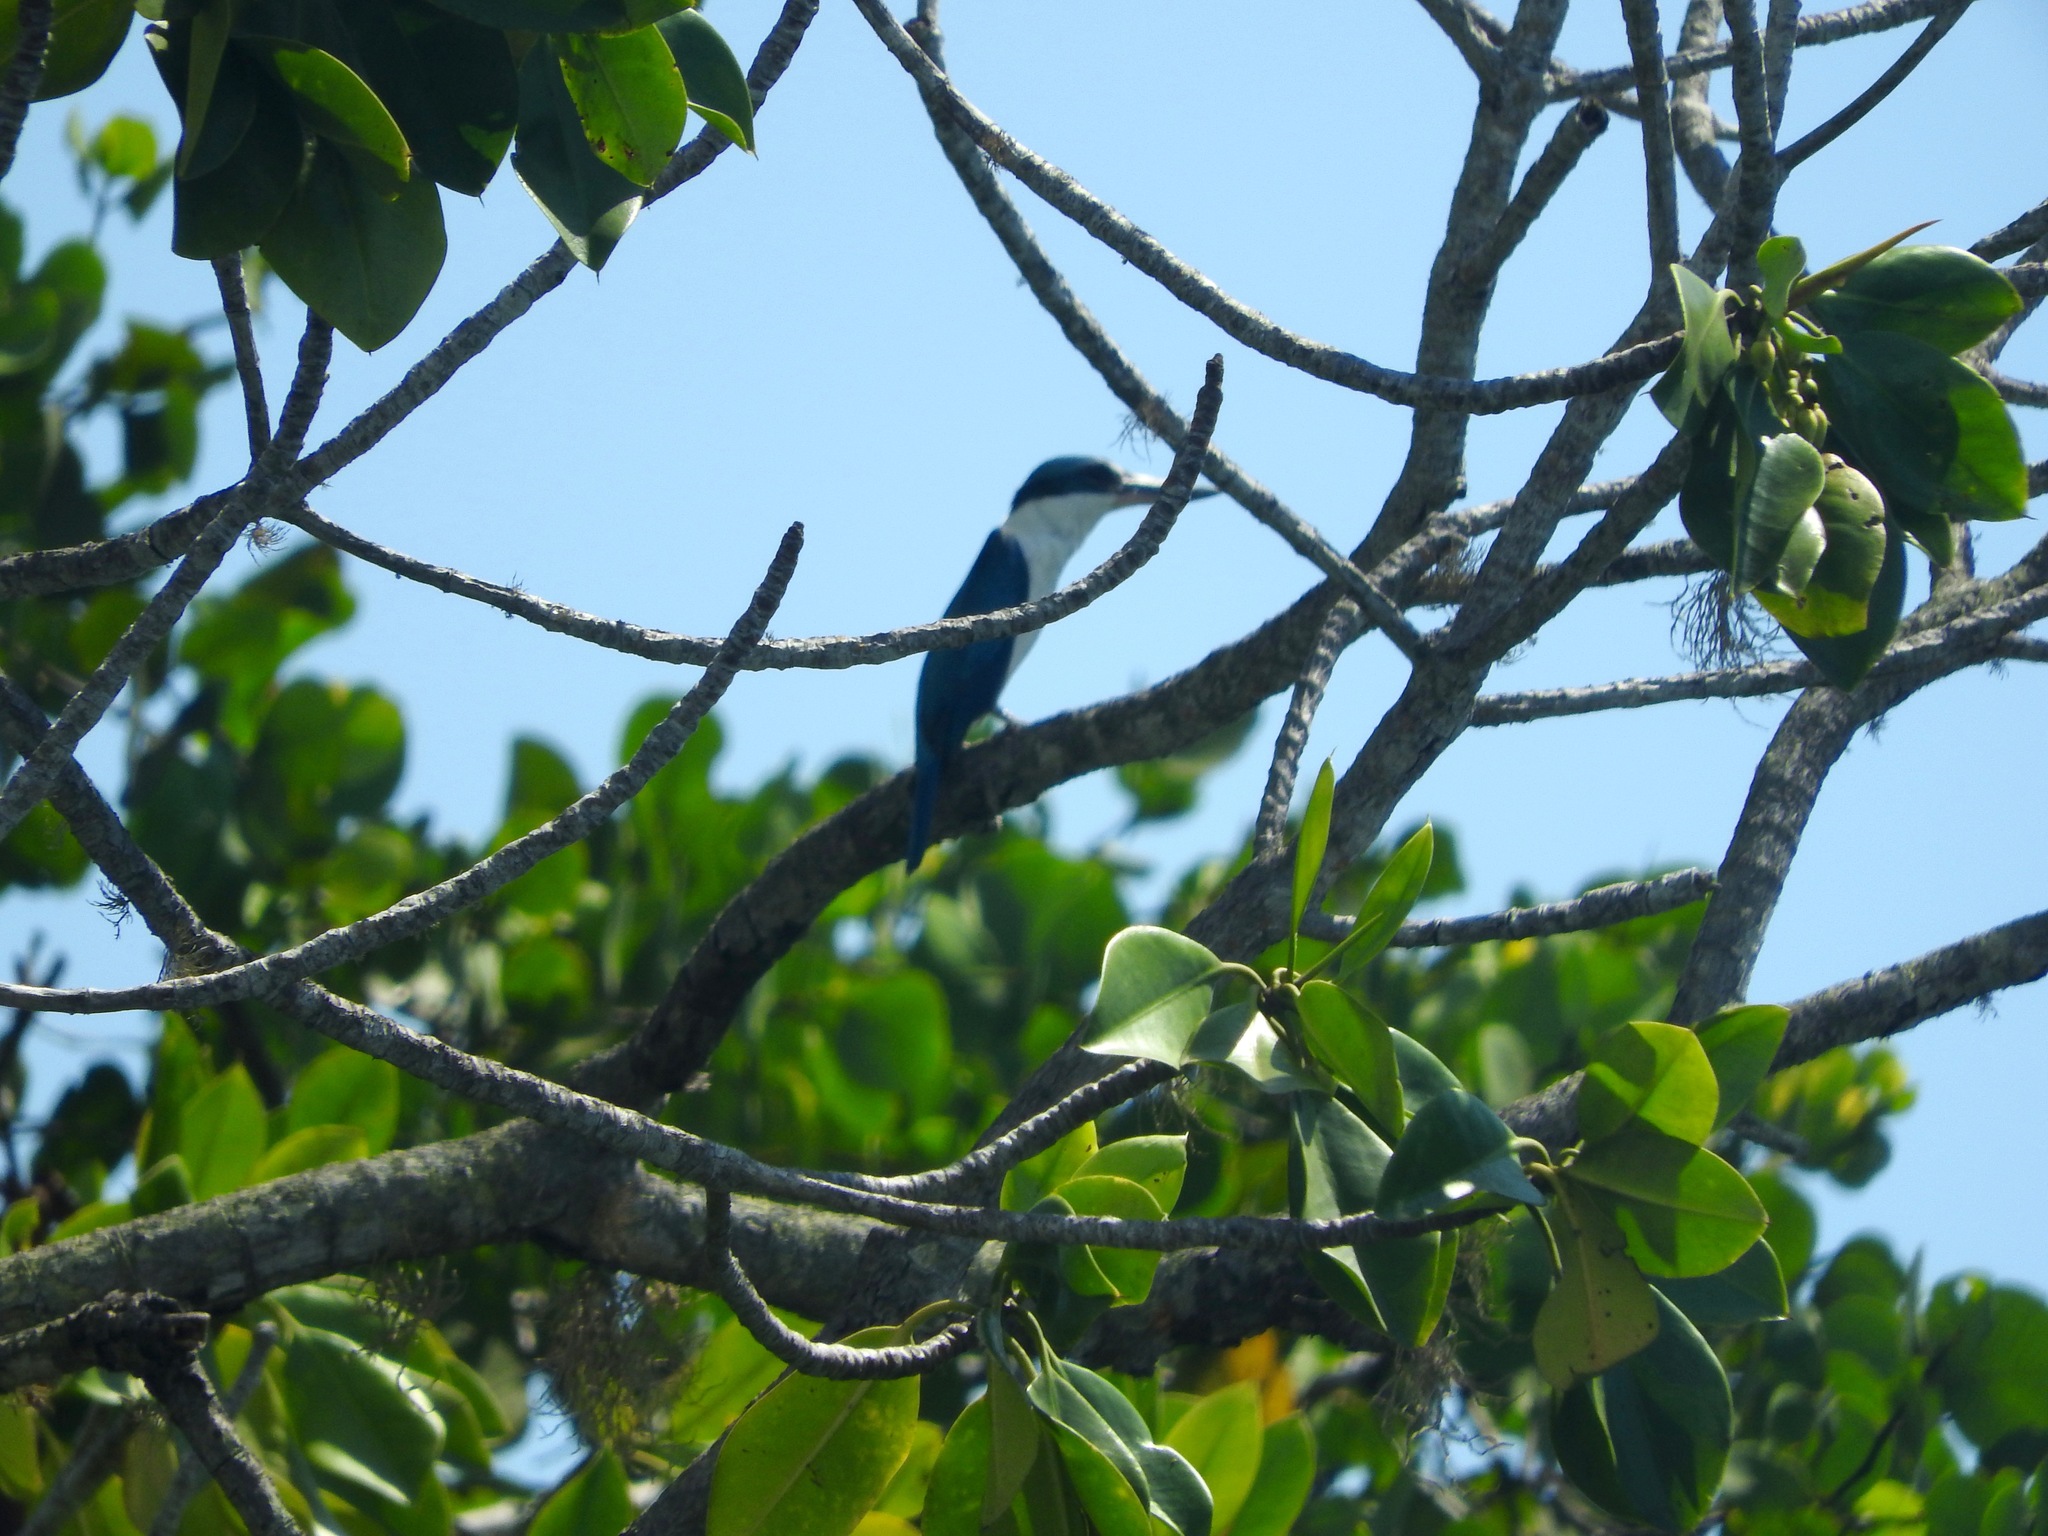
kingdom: Animalia
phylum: Chordata
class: Aves
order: Coraciiformes
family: Alcedinidae
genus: Todiramphus
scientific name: Todiramphus chloris
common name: Collared kingfisher
